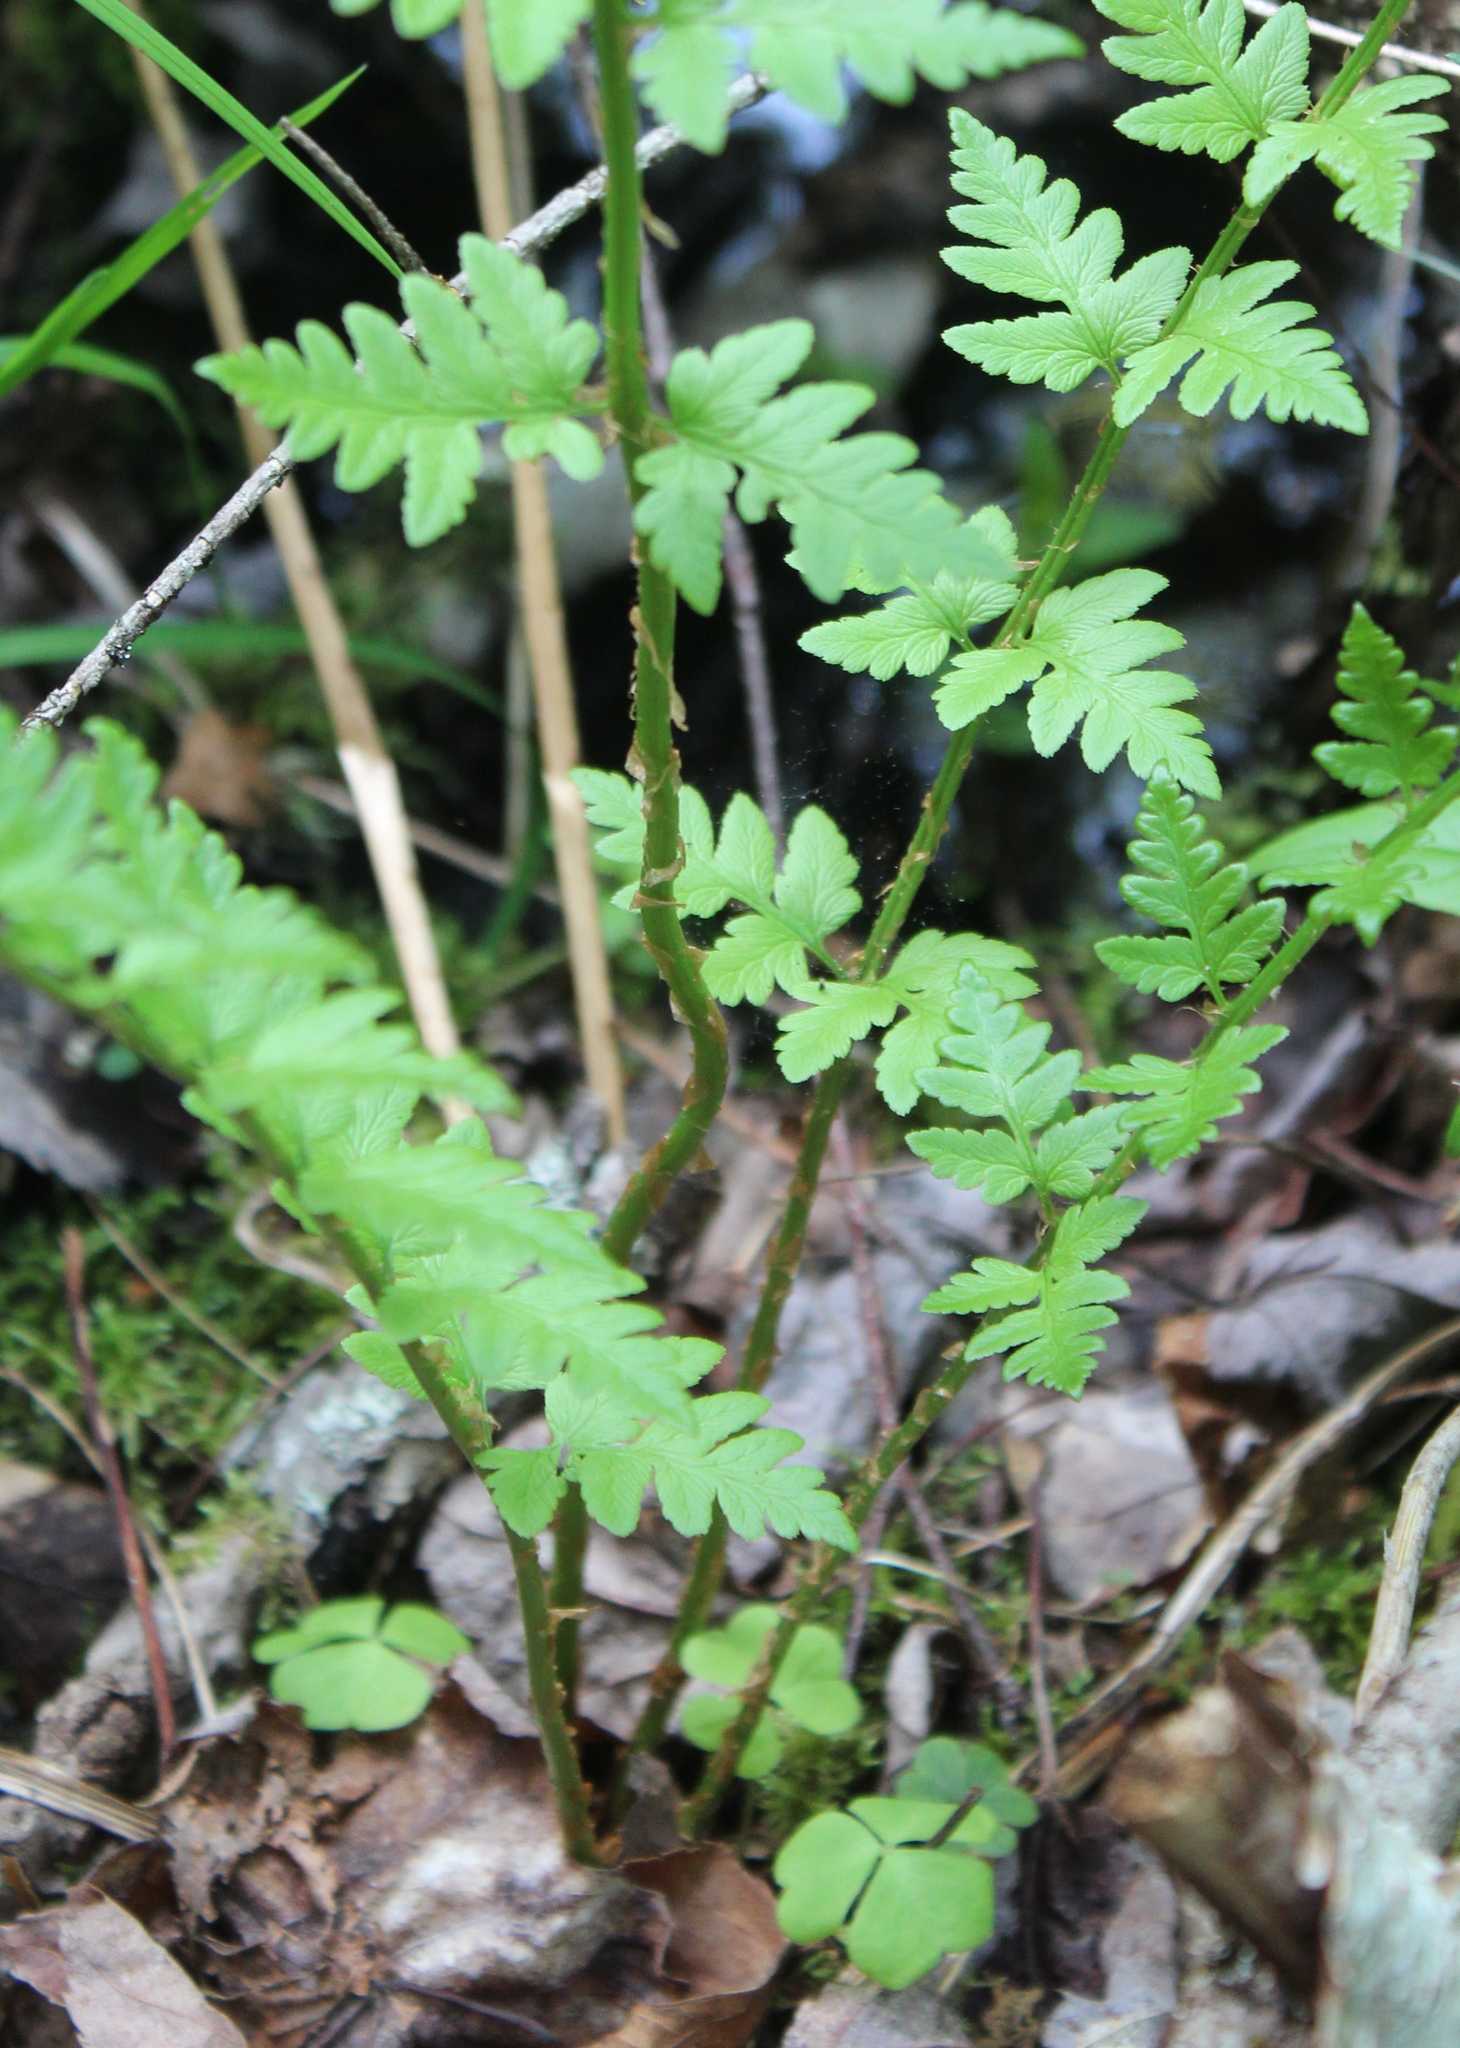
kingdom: Plantae
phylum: Tracheophyta
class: Polypodiopsida
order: Polypodiales
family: Dryopteridaceae
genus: Dryopteris
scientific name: Dryopteris cristata
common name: Crested wood fern
